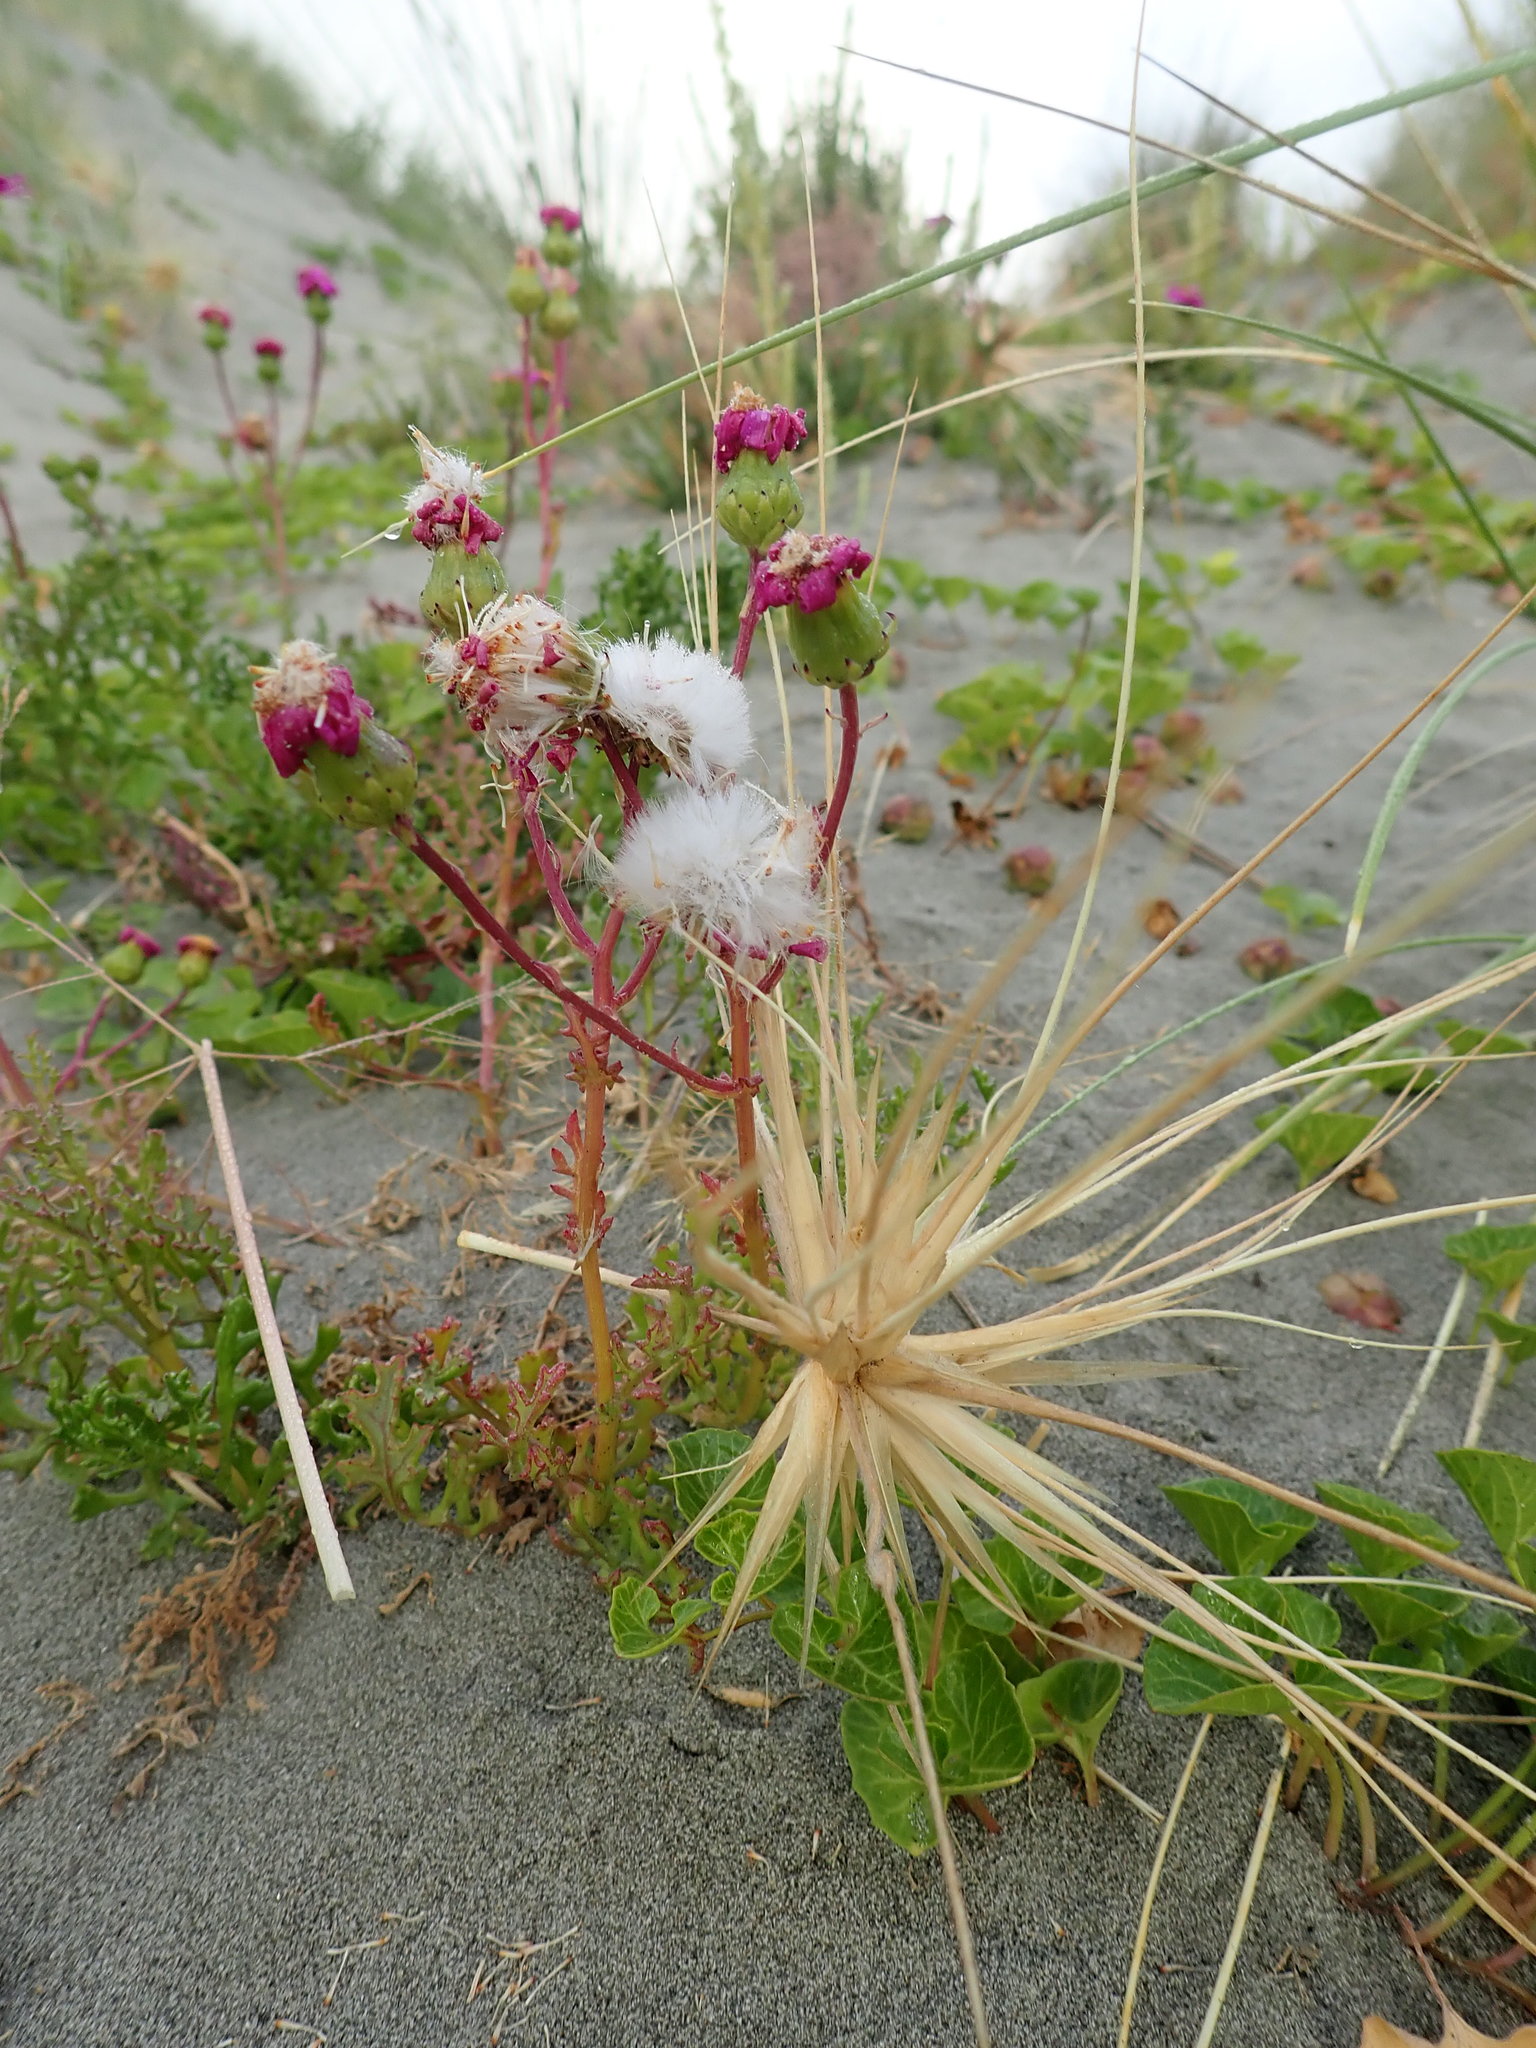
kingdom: Plantae
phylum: Tracheophyta
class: Magnoliopsida
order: Asterales
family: Asteraceae
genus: Senecio
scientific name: Senecio elegans
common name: Purple groundsel
